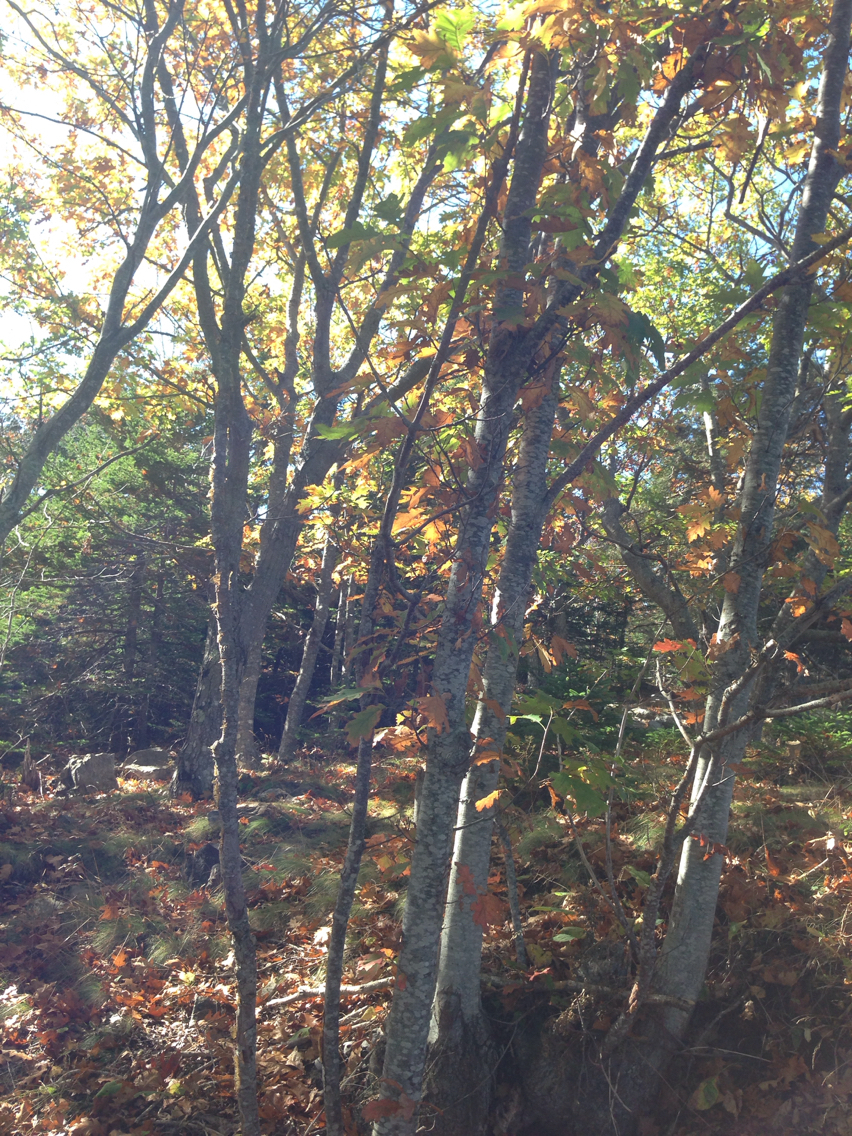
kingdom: Plantae
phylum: Tracheophyta
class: Magnoliopsida
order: Fagales
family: Fagaceae
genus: Quercus
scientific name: Quercus rubra
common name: Red oak
